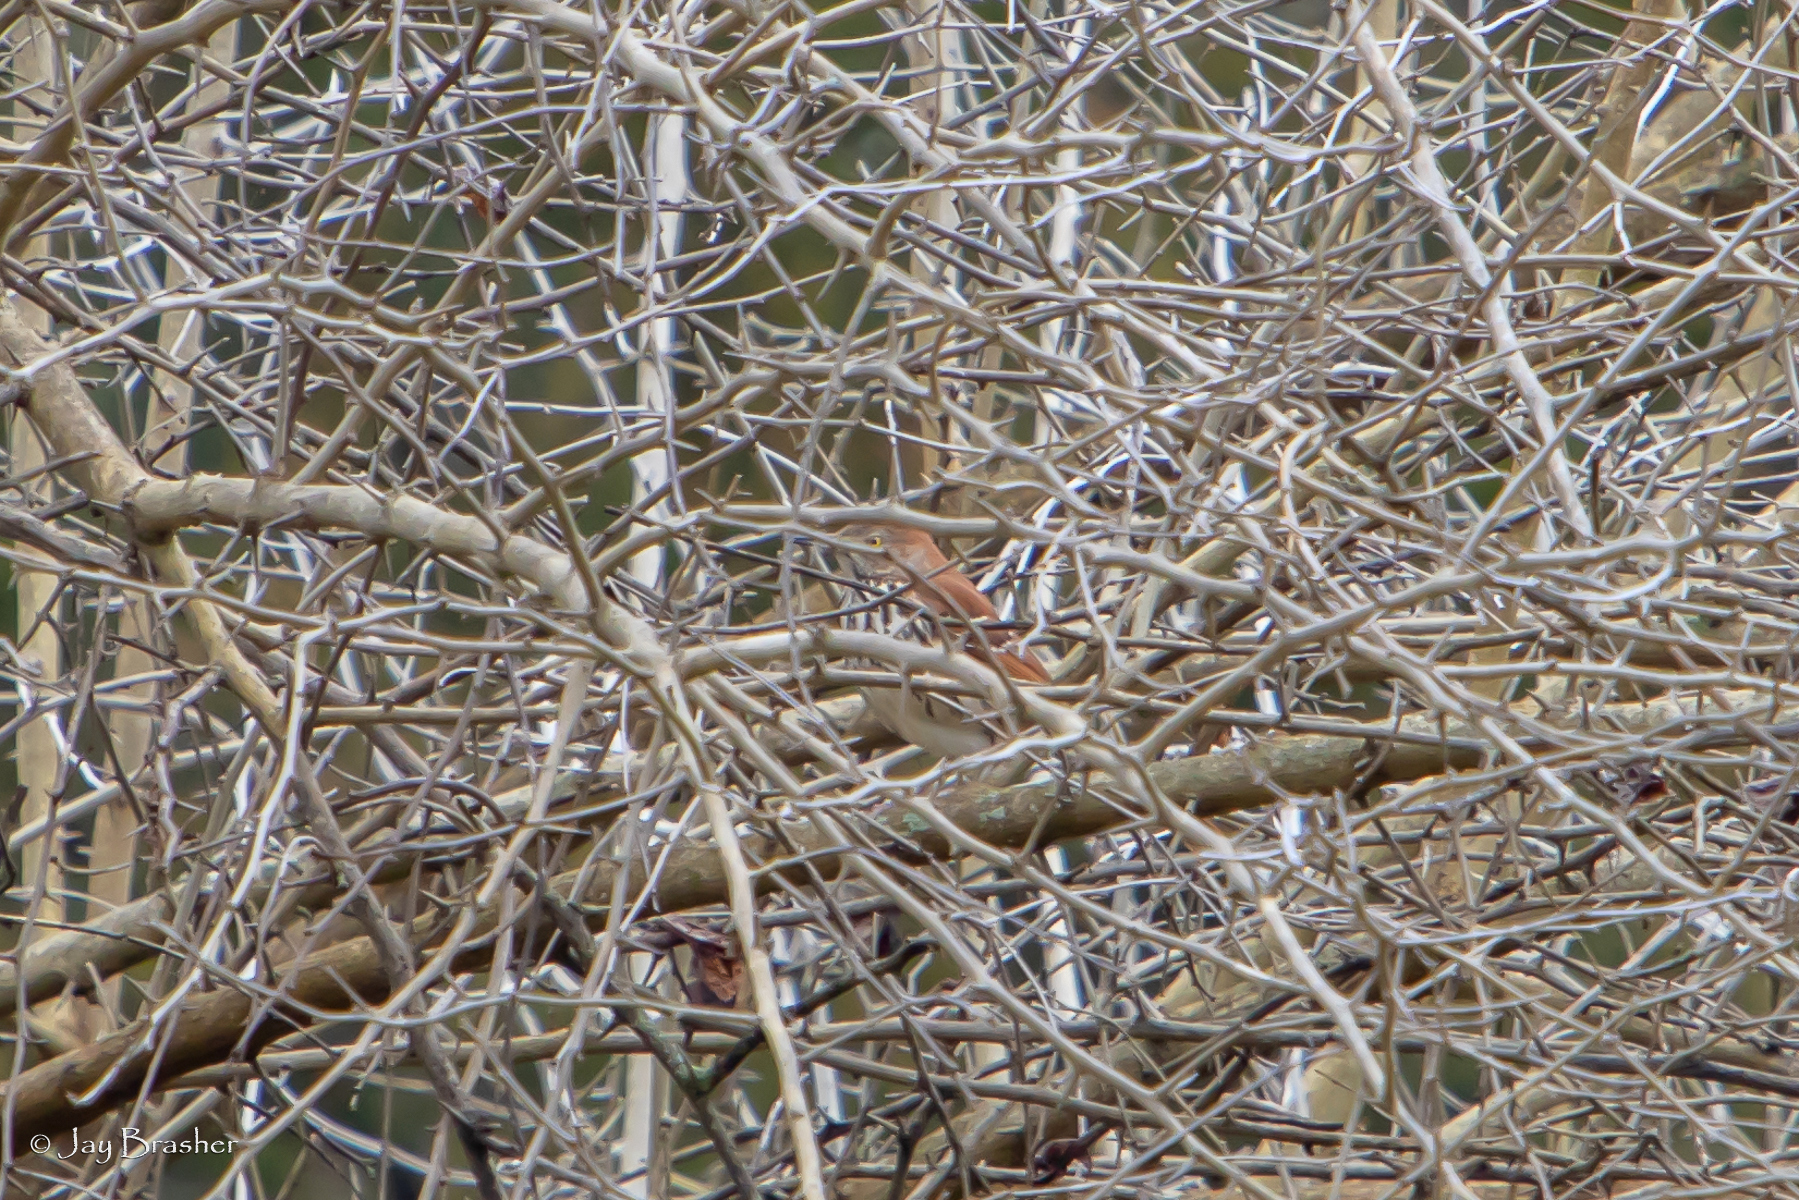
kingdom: Animalia
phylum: Chordata
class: Aves
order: Passeriformes
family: Mimidae
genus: Toxostoma
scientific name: Toxostoma rufum
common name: Brown thrasher
